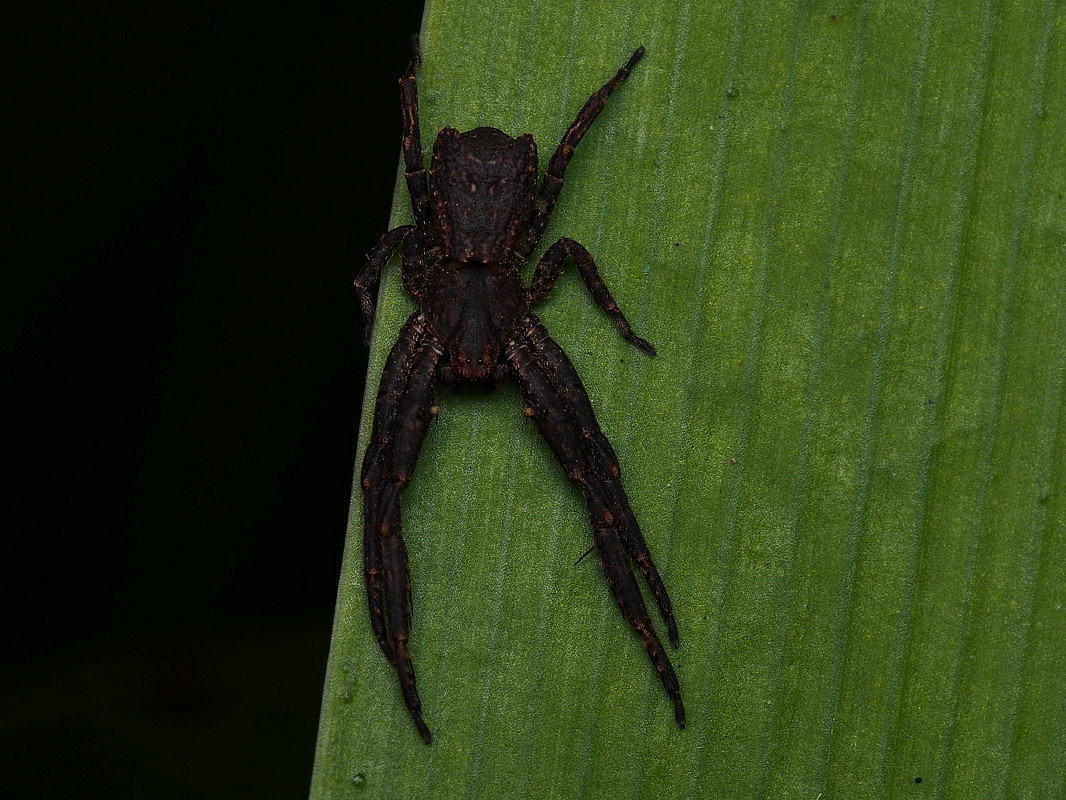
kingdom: Animalia
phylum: Arthropoda
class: Arachnida
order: Araneae
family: Thomisidae
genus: Sidymella
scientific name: Sidymella angulata
